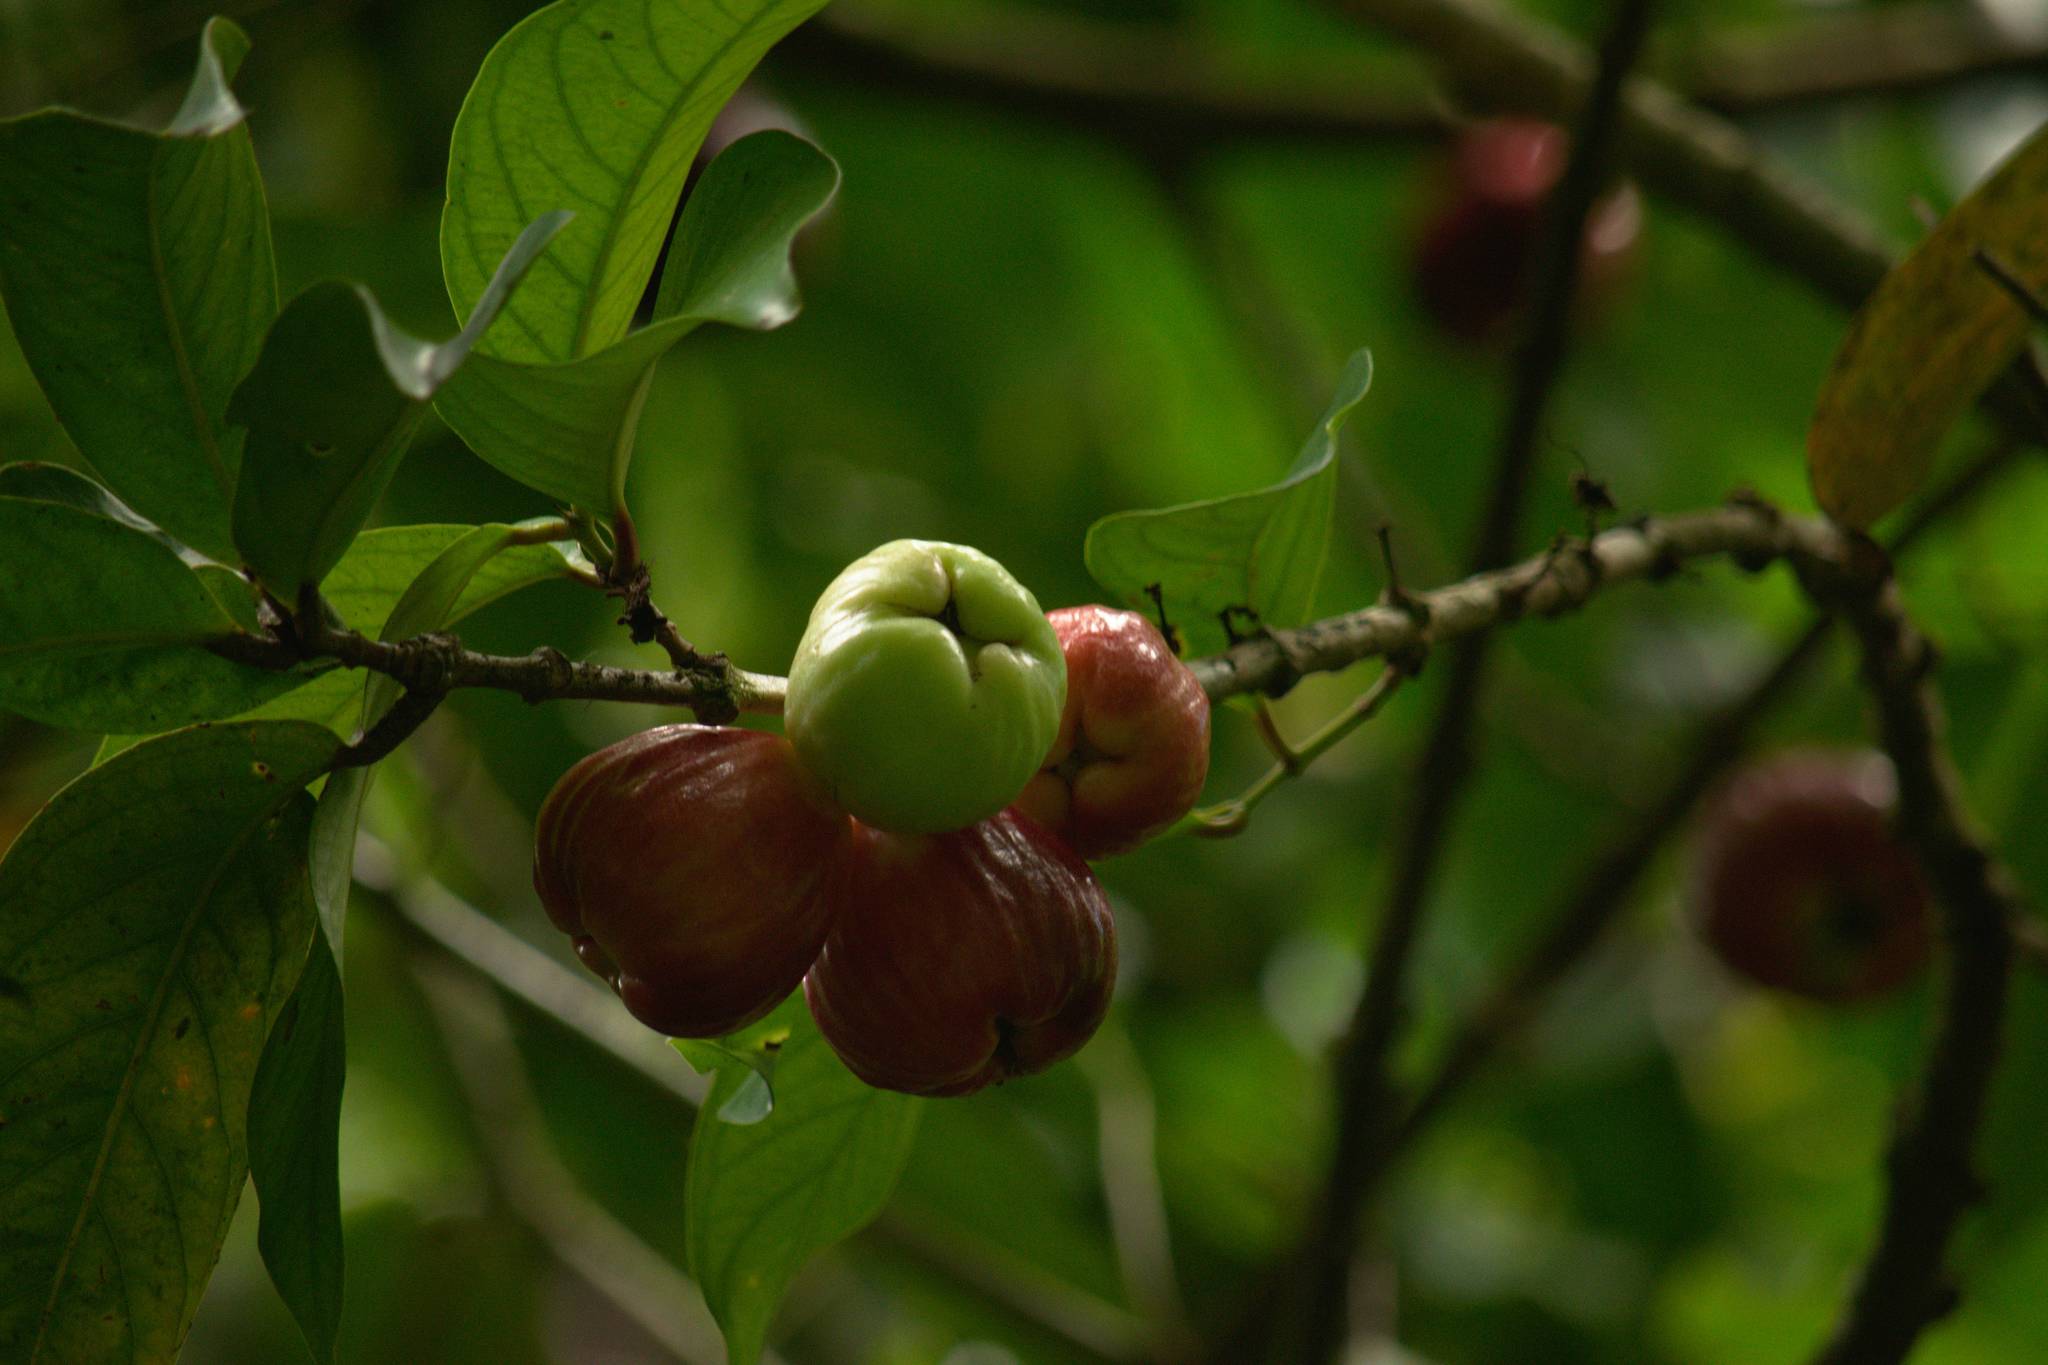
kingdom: Plantae
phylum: Tracheophyta
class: Magnoliopsida
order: Myrtales
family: Myrtaceae
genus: Syzygium
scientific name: Syzygium malaccense
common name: Malaysian apple
